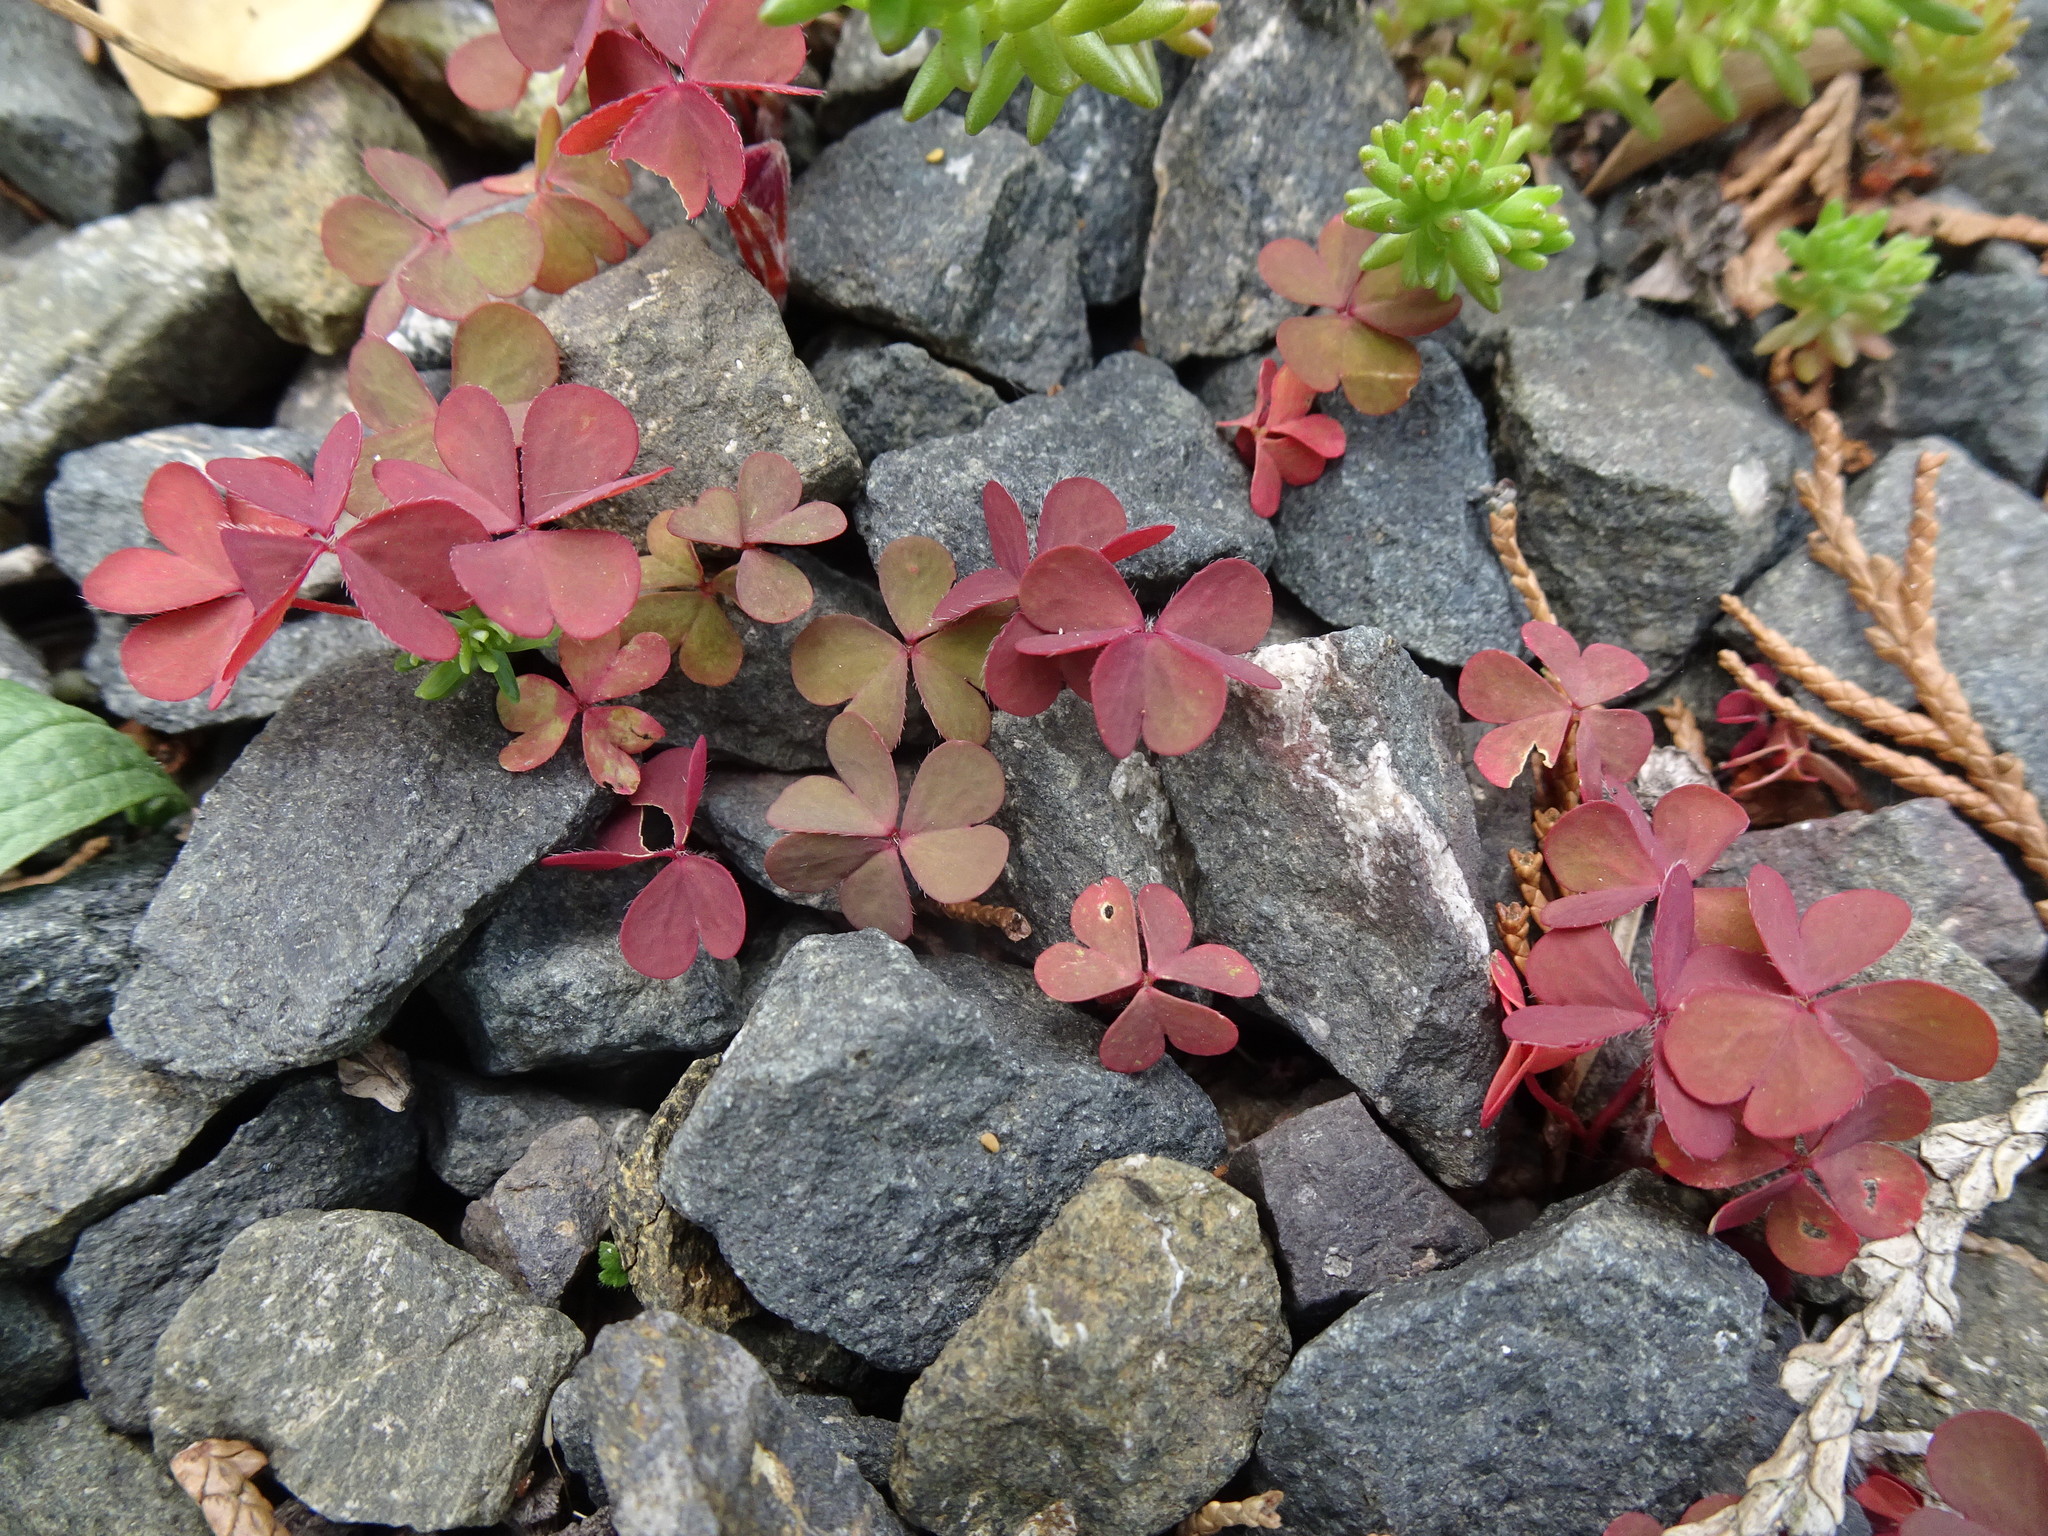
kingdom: Plantae
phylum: Tracheophyta
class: Magnoliopsida
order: Oxalidales
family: Oxalidaceae
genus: Oxalis
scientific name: Oxalis corniculata
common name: Procumbent yellow-sorrel
